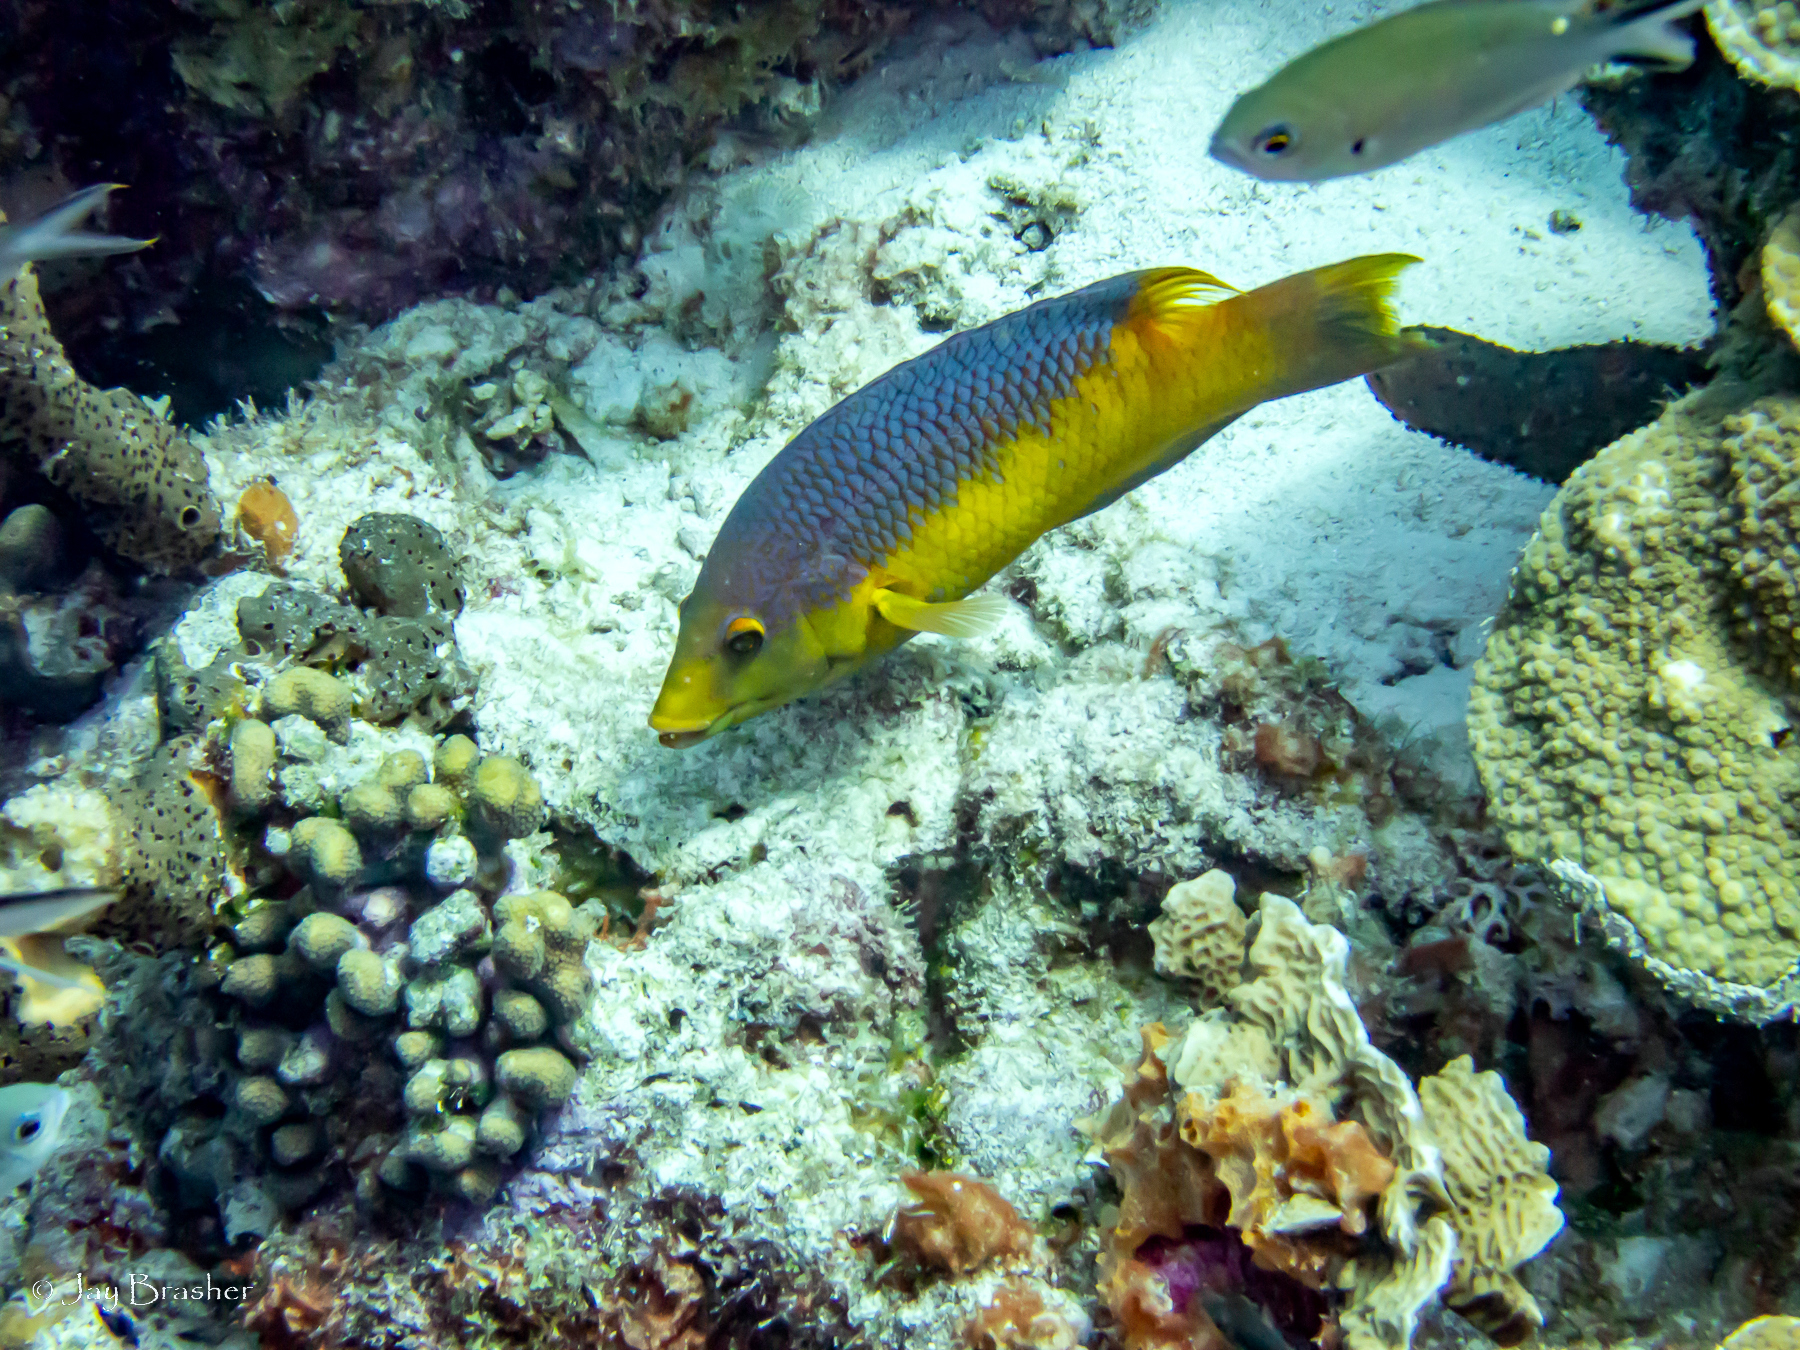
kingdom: Animalia
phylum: Cnidaria
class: Anthozoa
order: Scleractinia
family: Pocilloporidae
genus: Madracis
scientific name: Madracis decactis
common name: Ten-ray star coral
